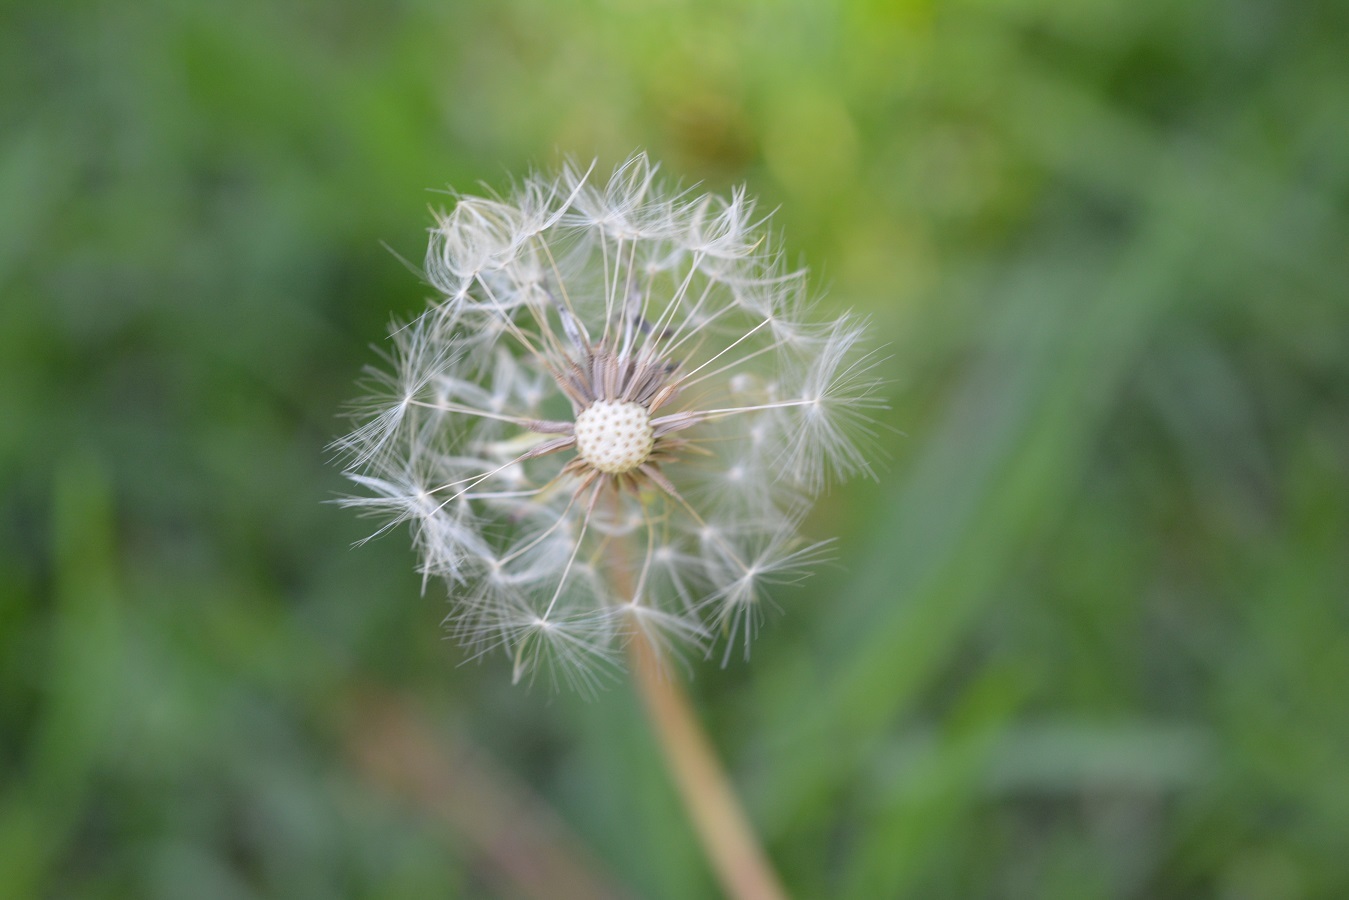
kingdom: Plantae
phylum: Tracheophyta
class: Magnoliopsida
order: Asterales
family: Asteraceae
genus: Taraxacum
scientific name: Taraxacum officinale
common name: Common dandelion
